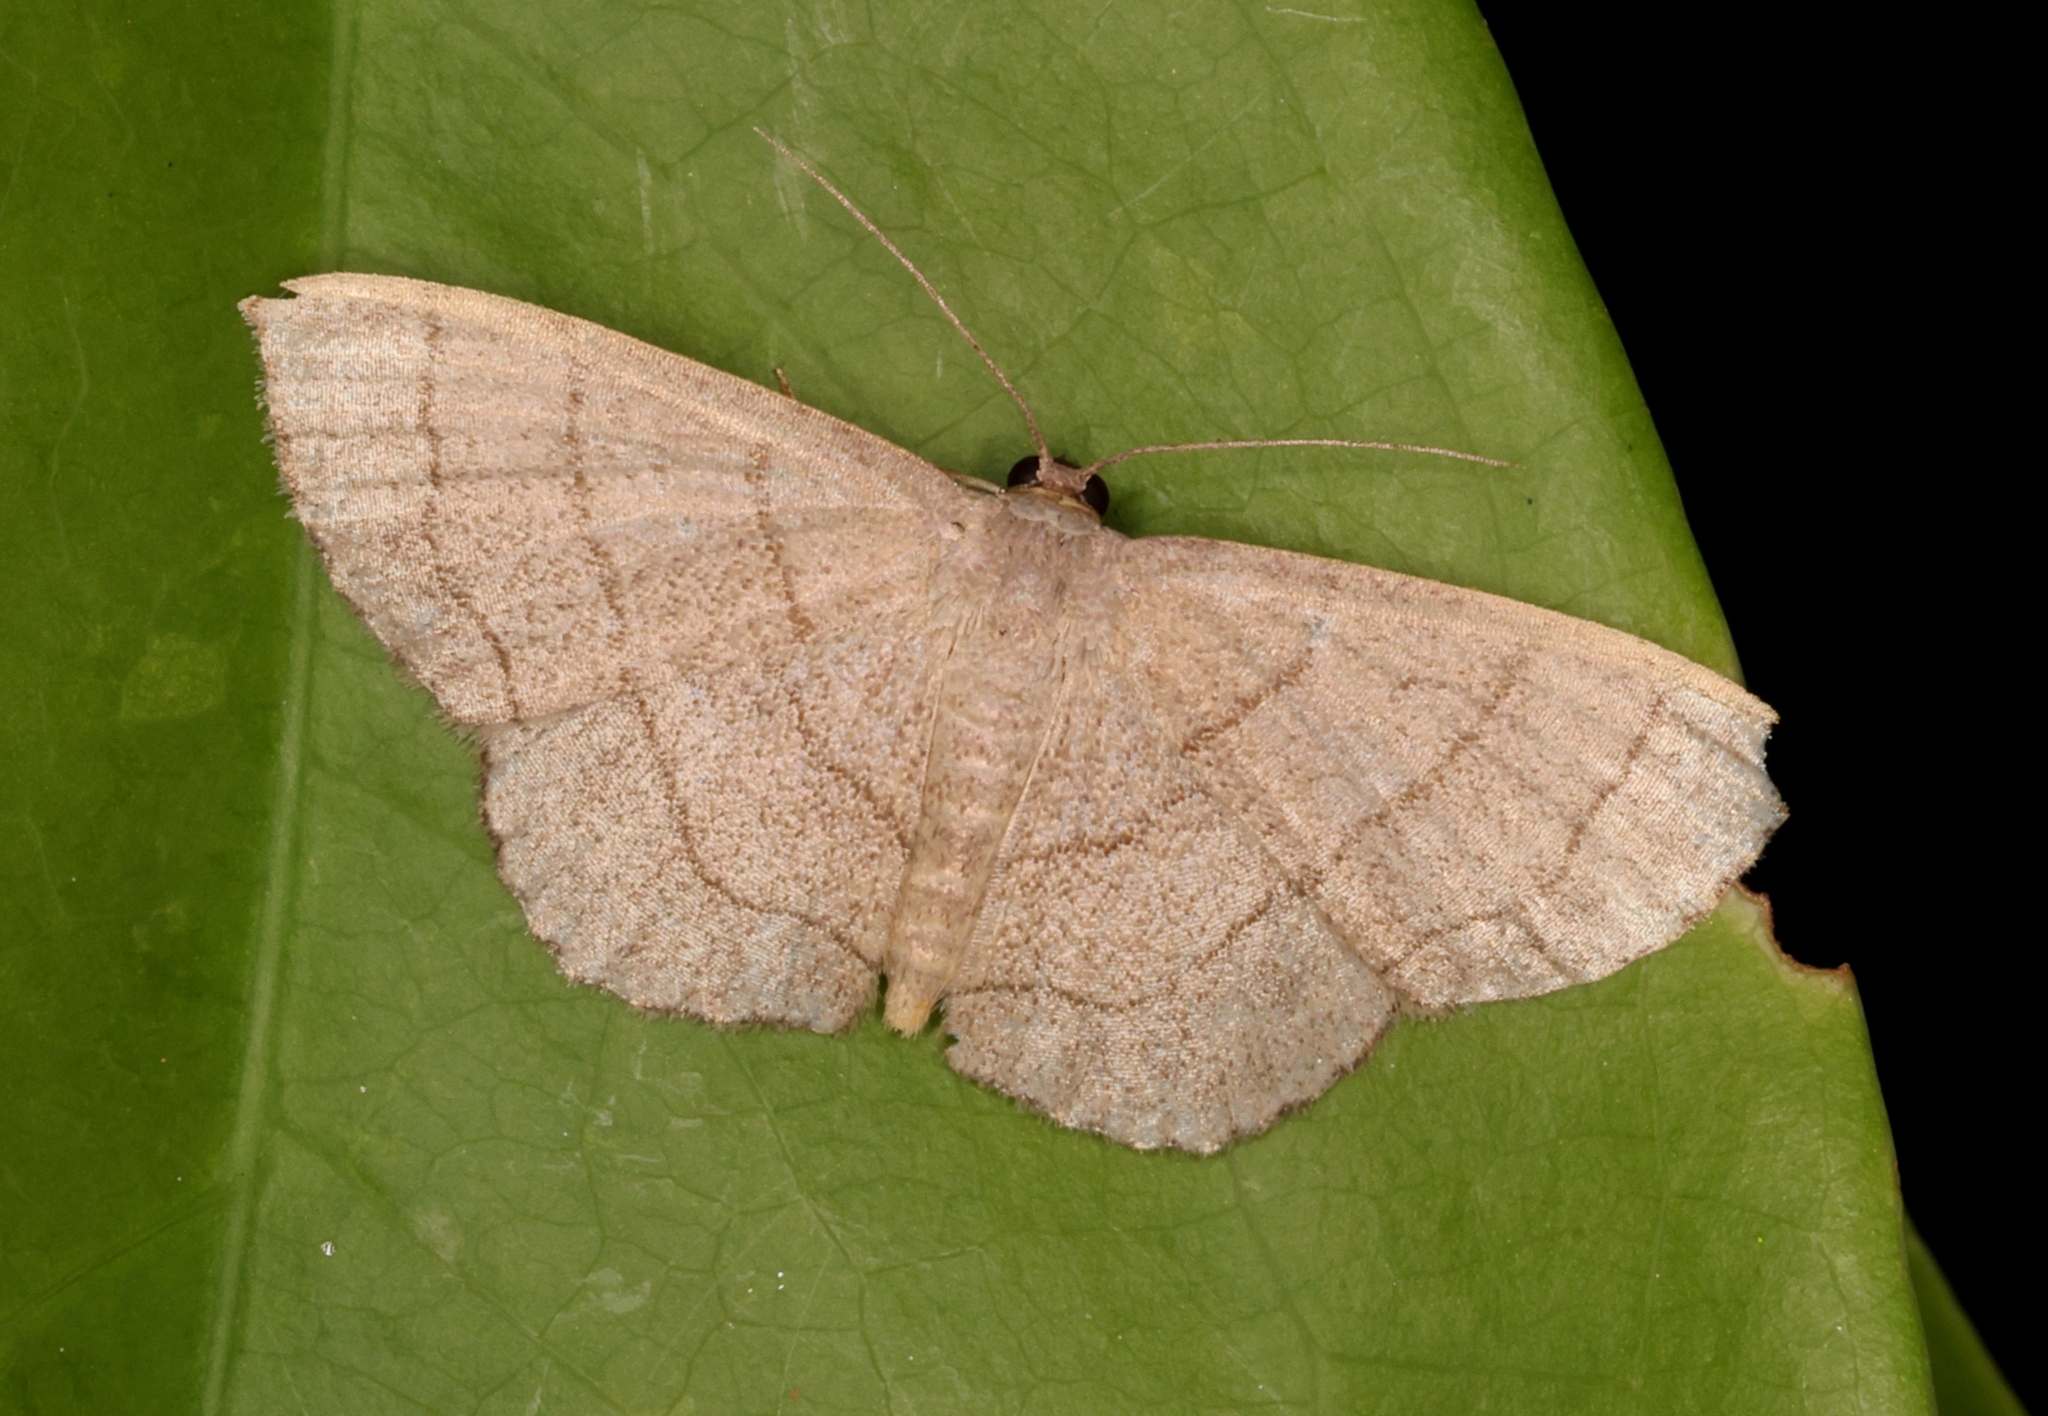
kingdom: Animalia
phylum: Arthropoda
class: Insecta
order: Lepidoptera
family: Geometridae
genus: Scopula
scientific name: Scopula mecysma
